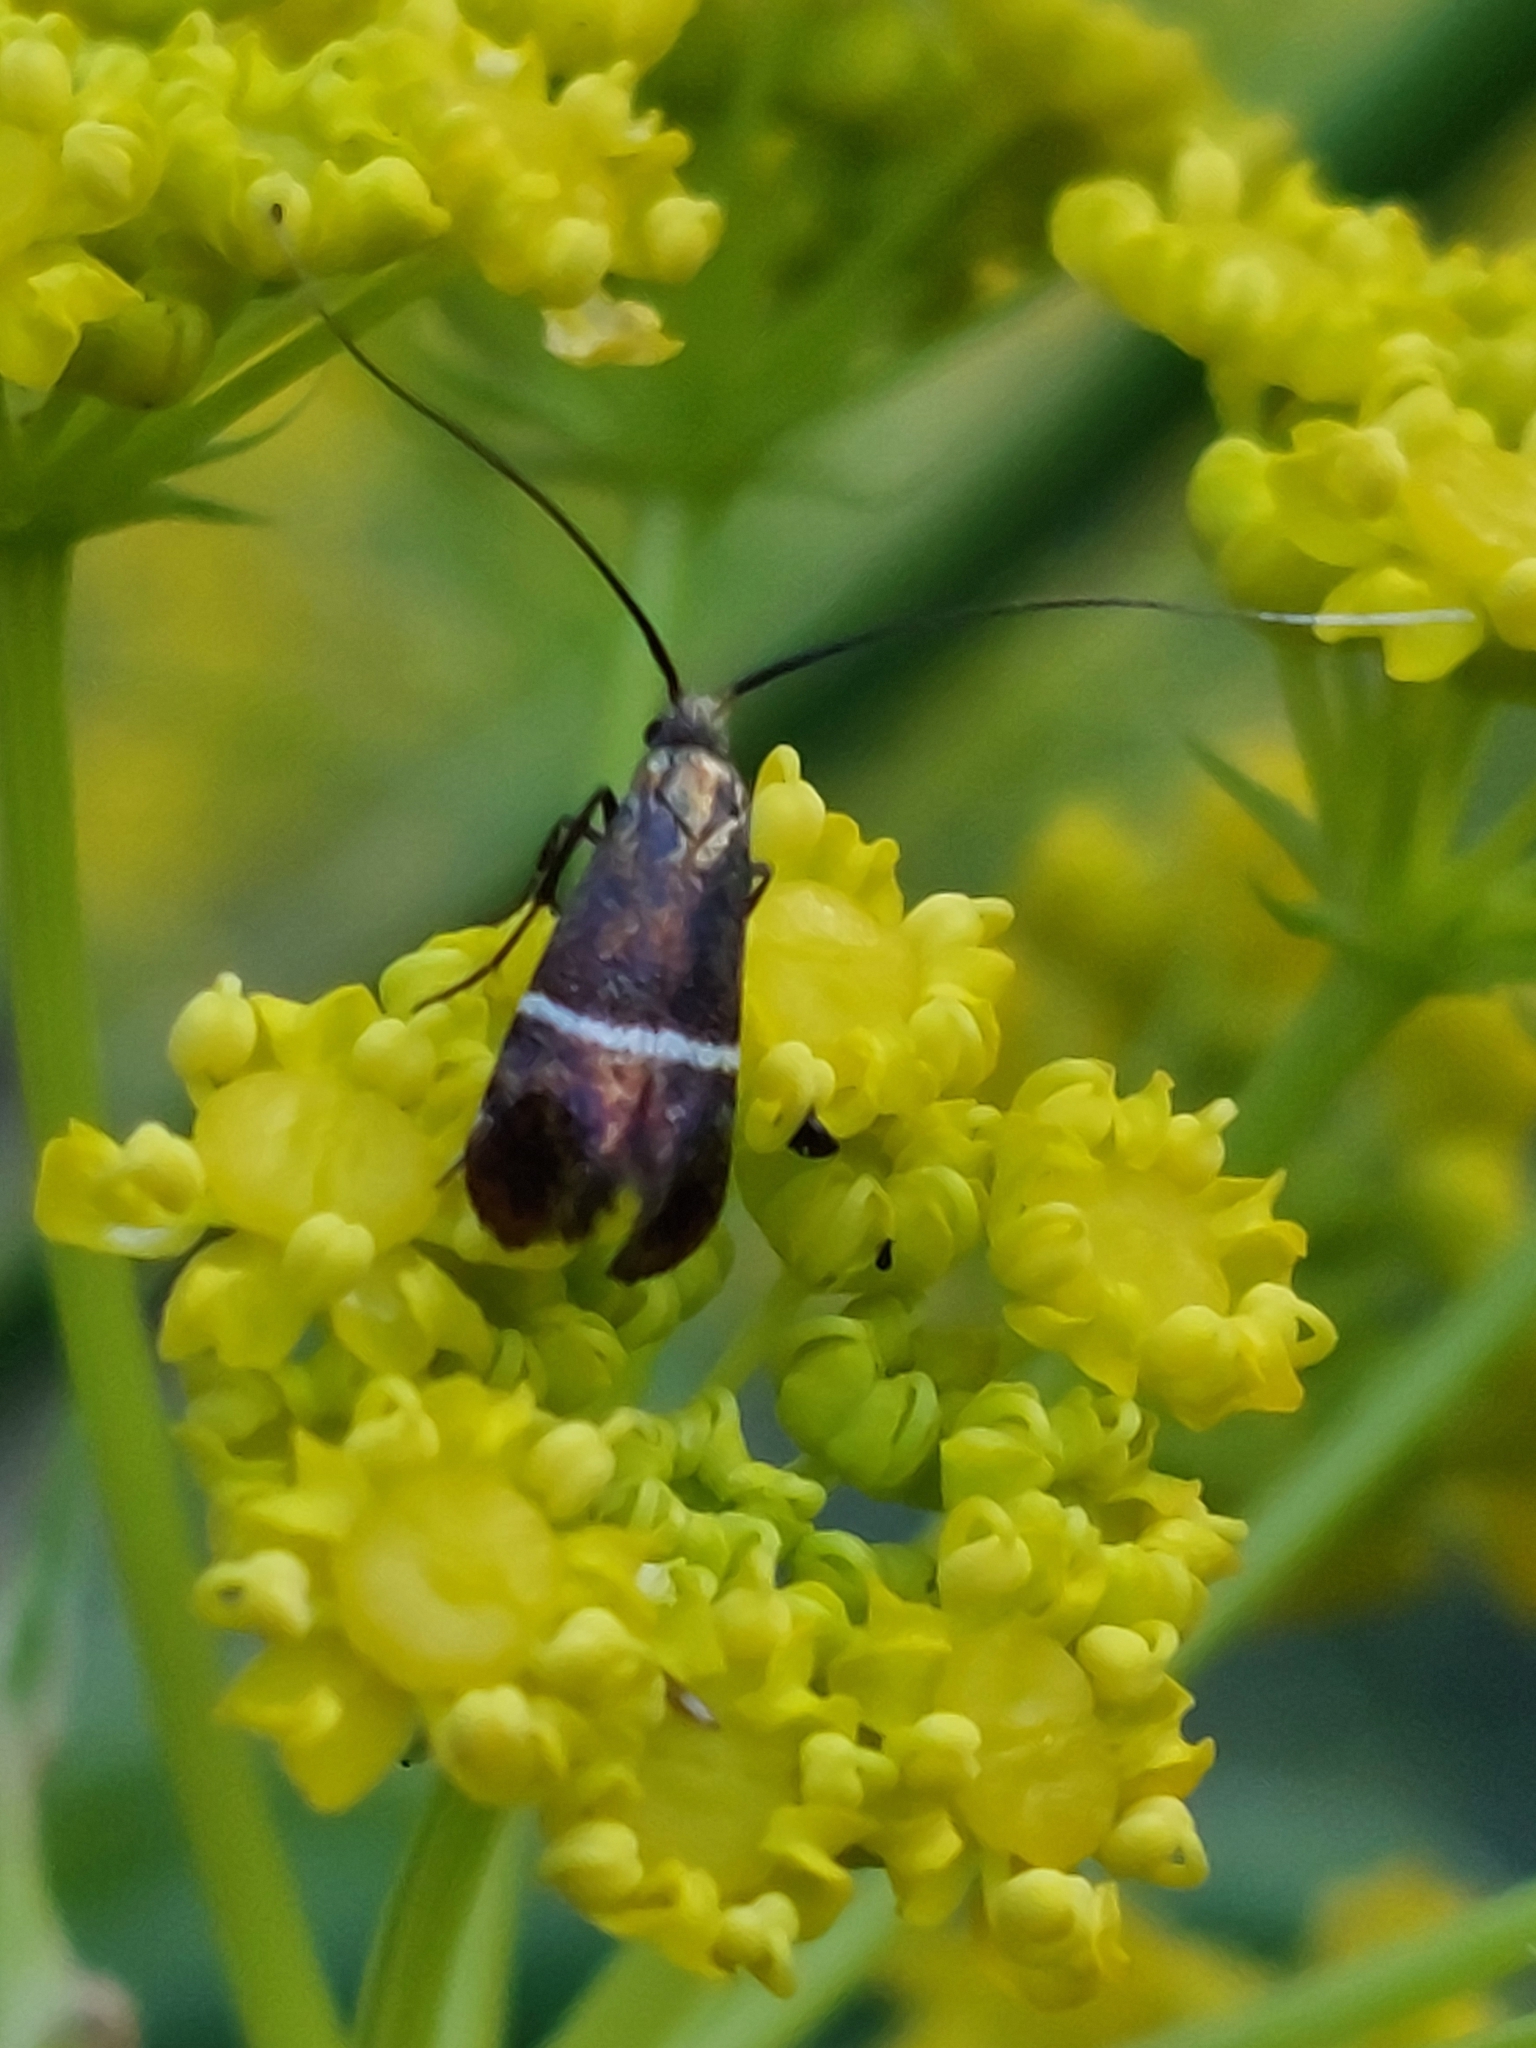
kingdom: Animalia
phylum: Arthropoda
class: Insecta
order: Lepidoptera
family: Adelidae
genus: Adela
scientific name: Adela paludicolella
